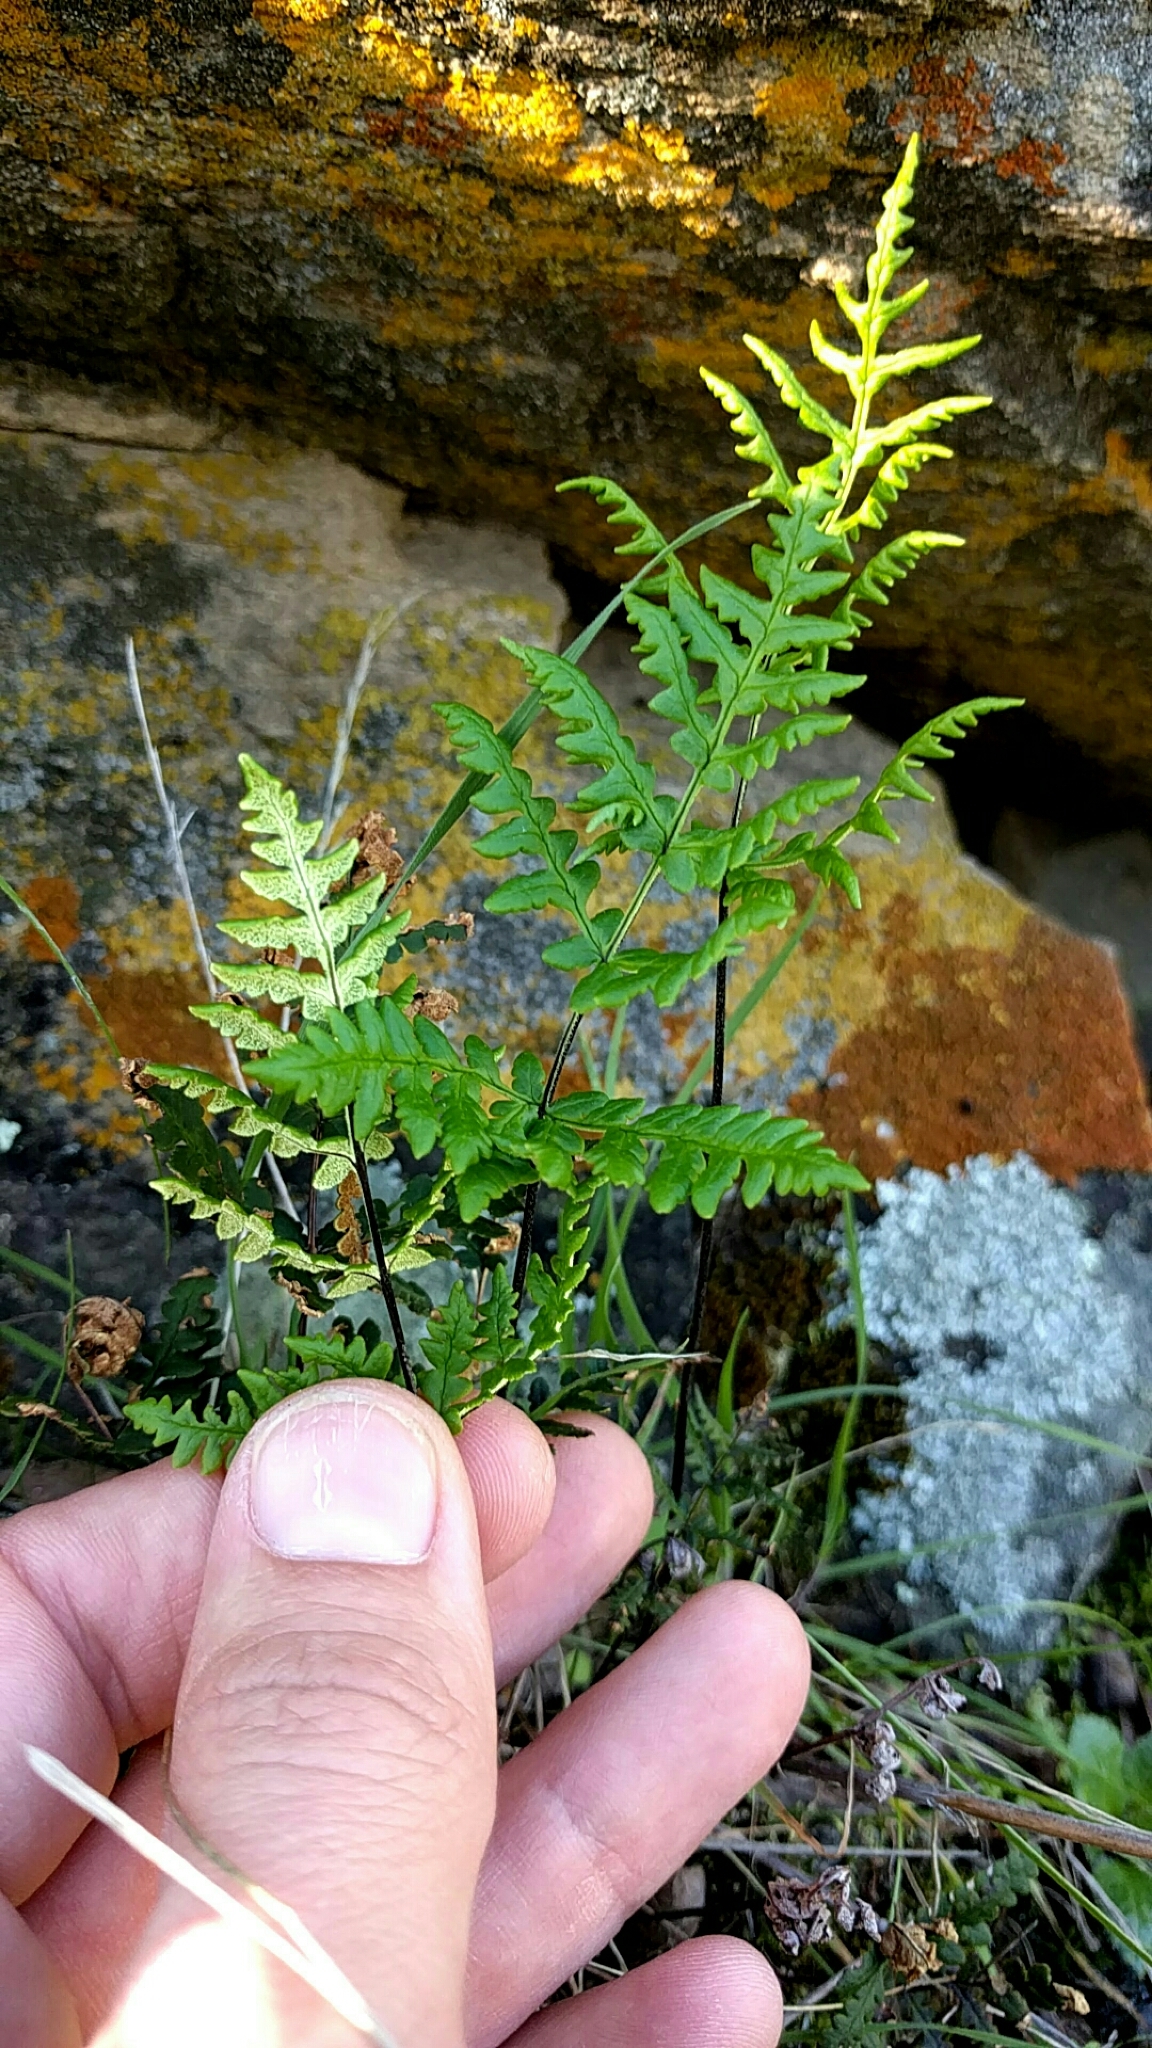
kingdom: Plantae
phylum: Tracheophyta
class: Polypodiopsida
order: Polypodiales
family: Pteridaceae
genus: Pentagramma
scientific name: Pentagramma triangularis
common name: Gold fern
